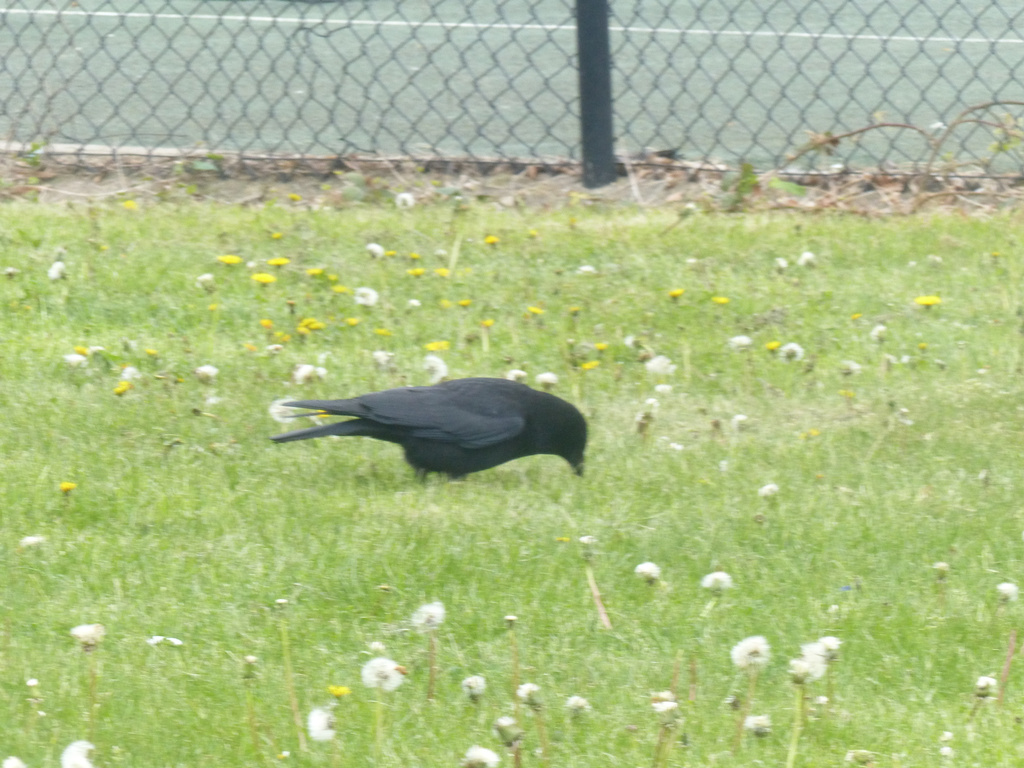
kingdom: Animalia
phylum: Chordata
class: Aves
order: Passeriformes
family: Corvidae
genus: Corvus
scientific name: Corvus corone
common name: Carrion crow
